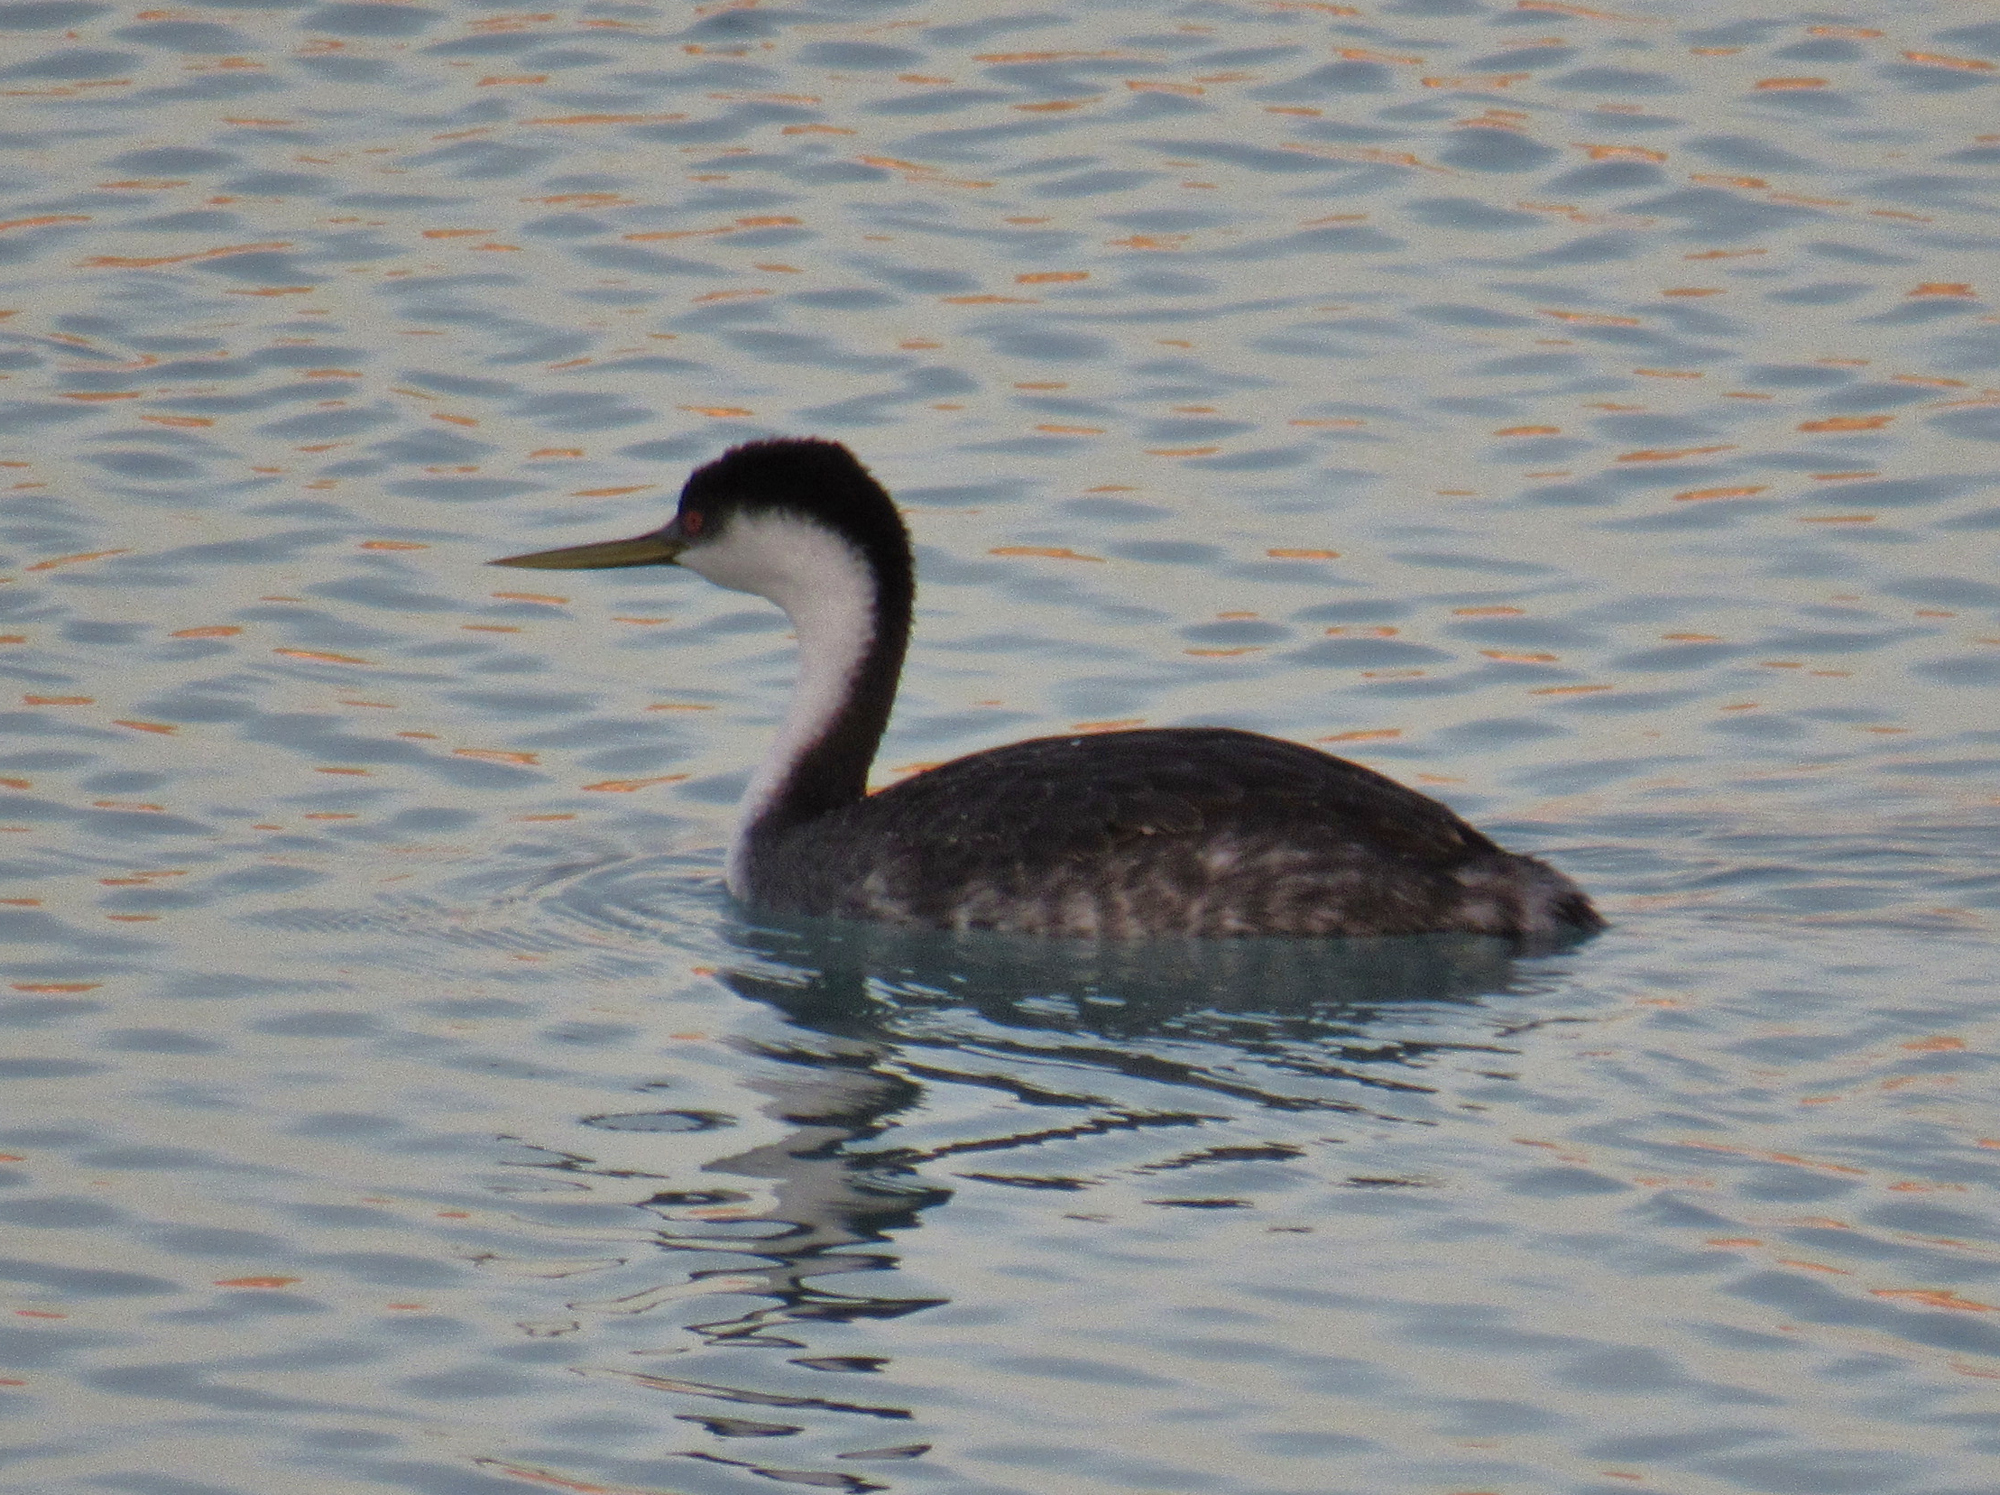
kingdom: Animalia
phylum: Chordata
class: Aves
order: Podicipediformes
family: Podicipedidae
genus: Aechmophorus
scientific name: Aechmophorus occidentalis
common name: Western grebe
